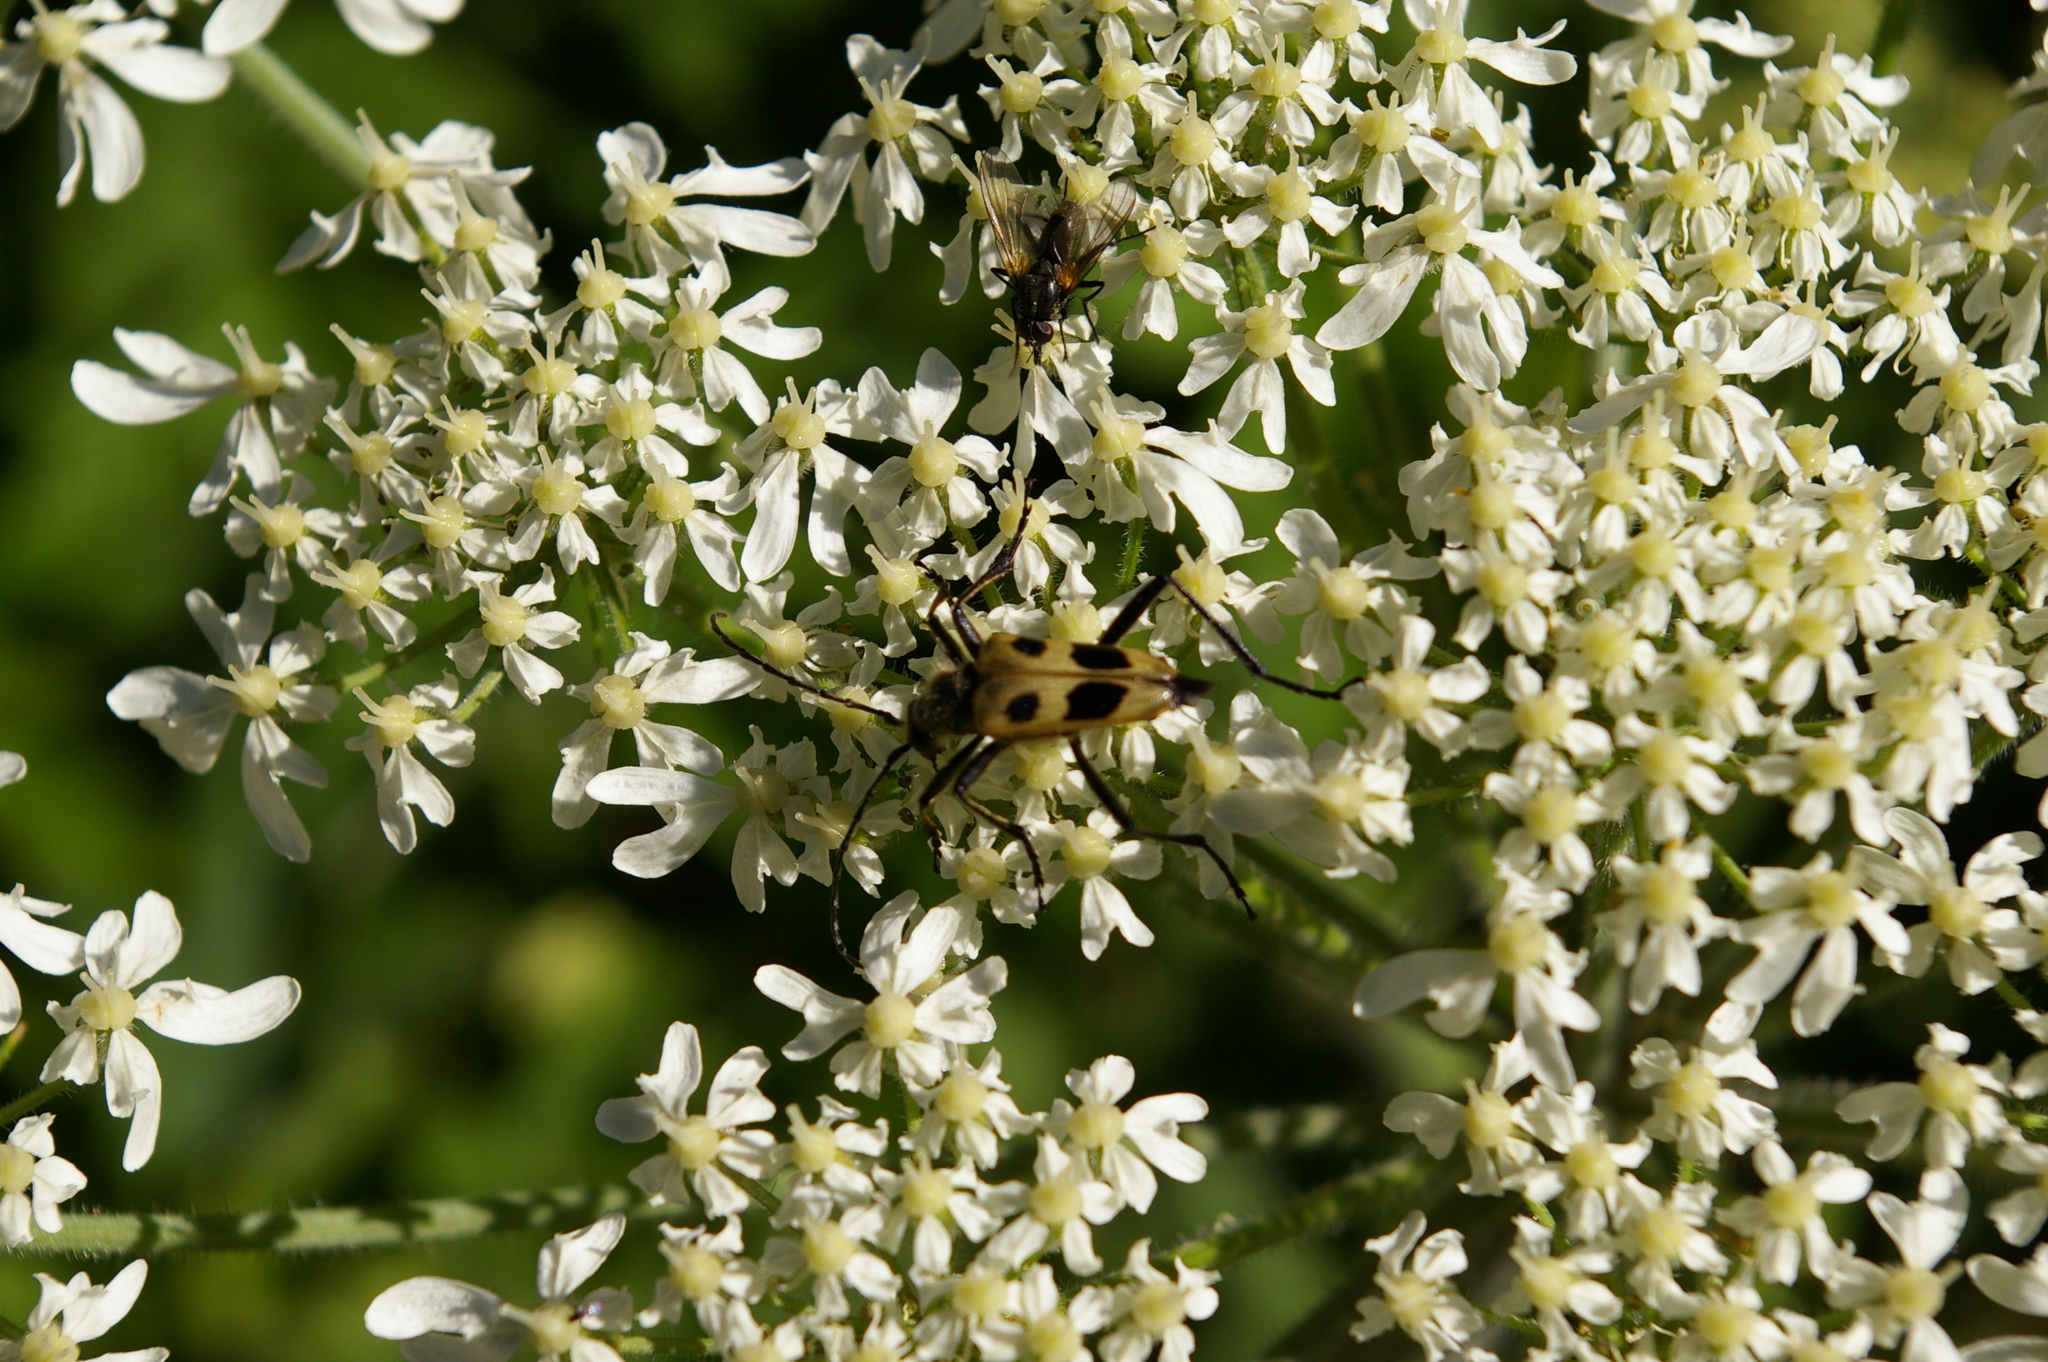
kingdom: Animalia
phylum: Arthropoda
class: Insecta
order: Coleoptera
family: Cerambycidae
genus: Pachyta
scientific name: Pachyta quadrimaculata
